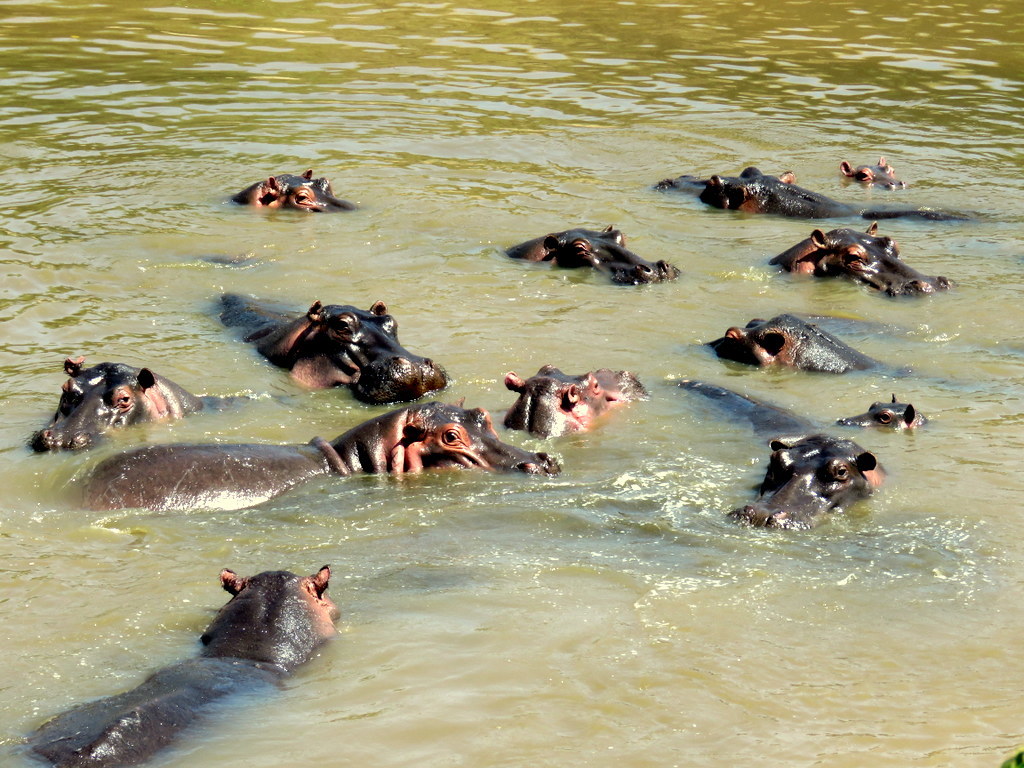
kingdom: Animalia
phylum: Chordata
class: Mammalia
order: Artiodactyla
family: Hippopotamidae
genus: Hippopotamus
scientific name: Hippopotamus amphibius
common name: Common hippopotamus
